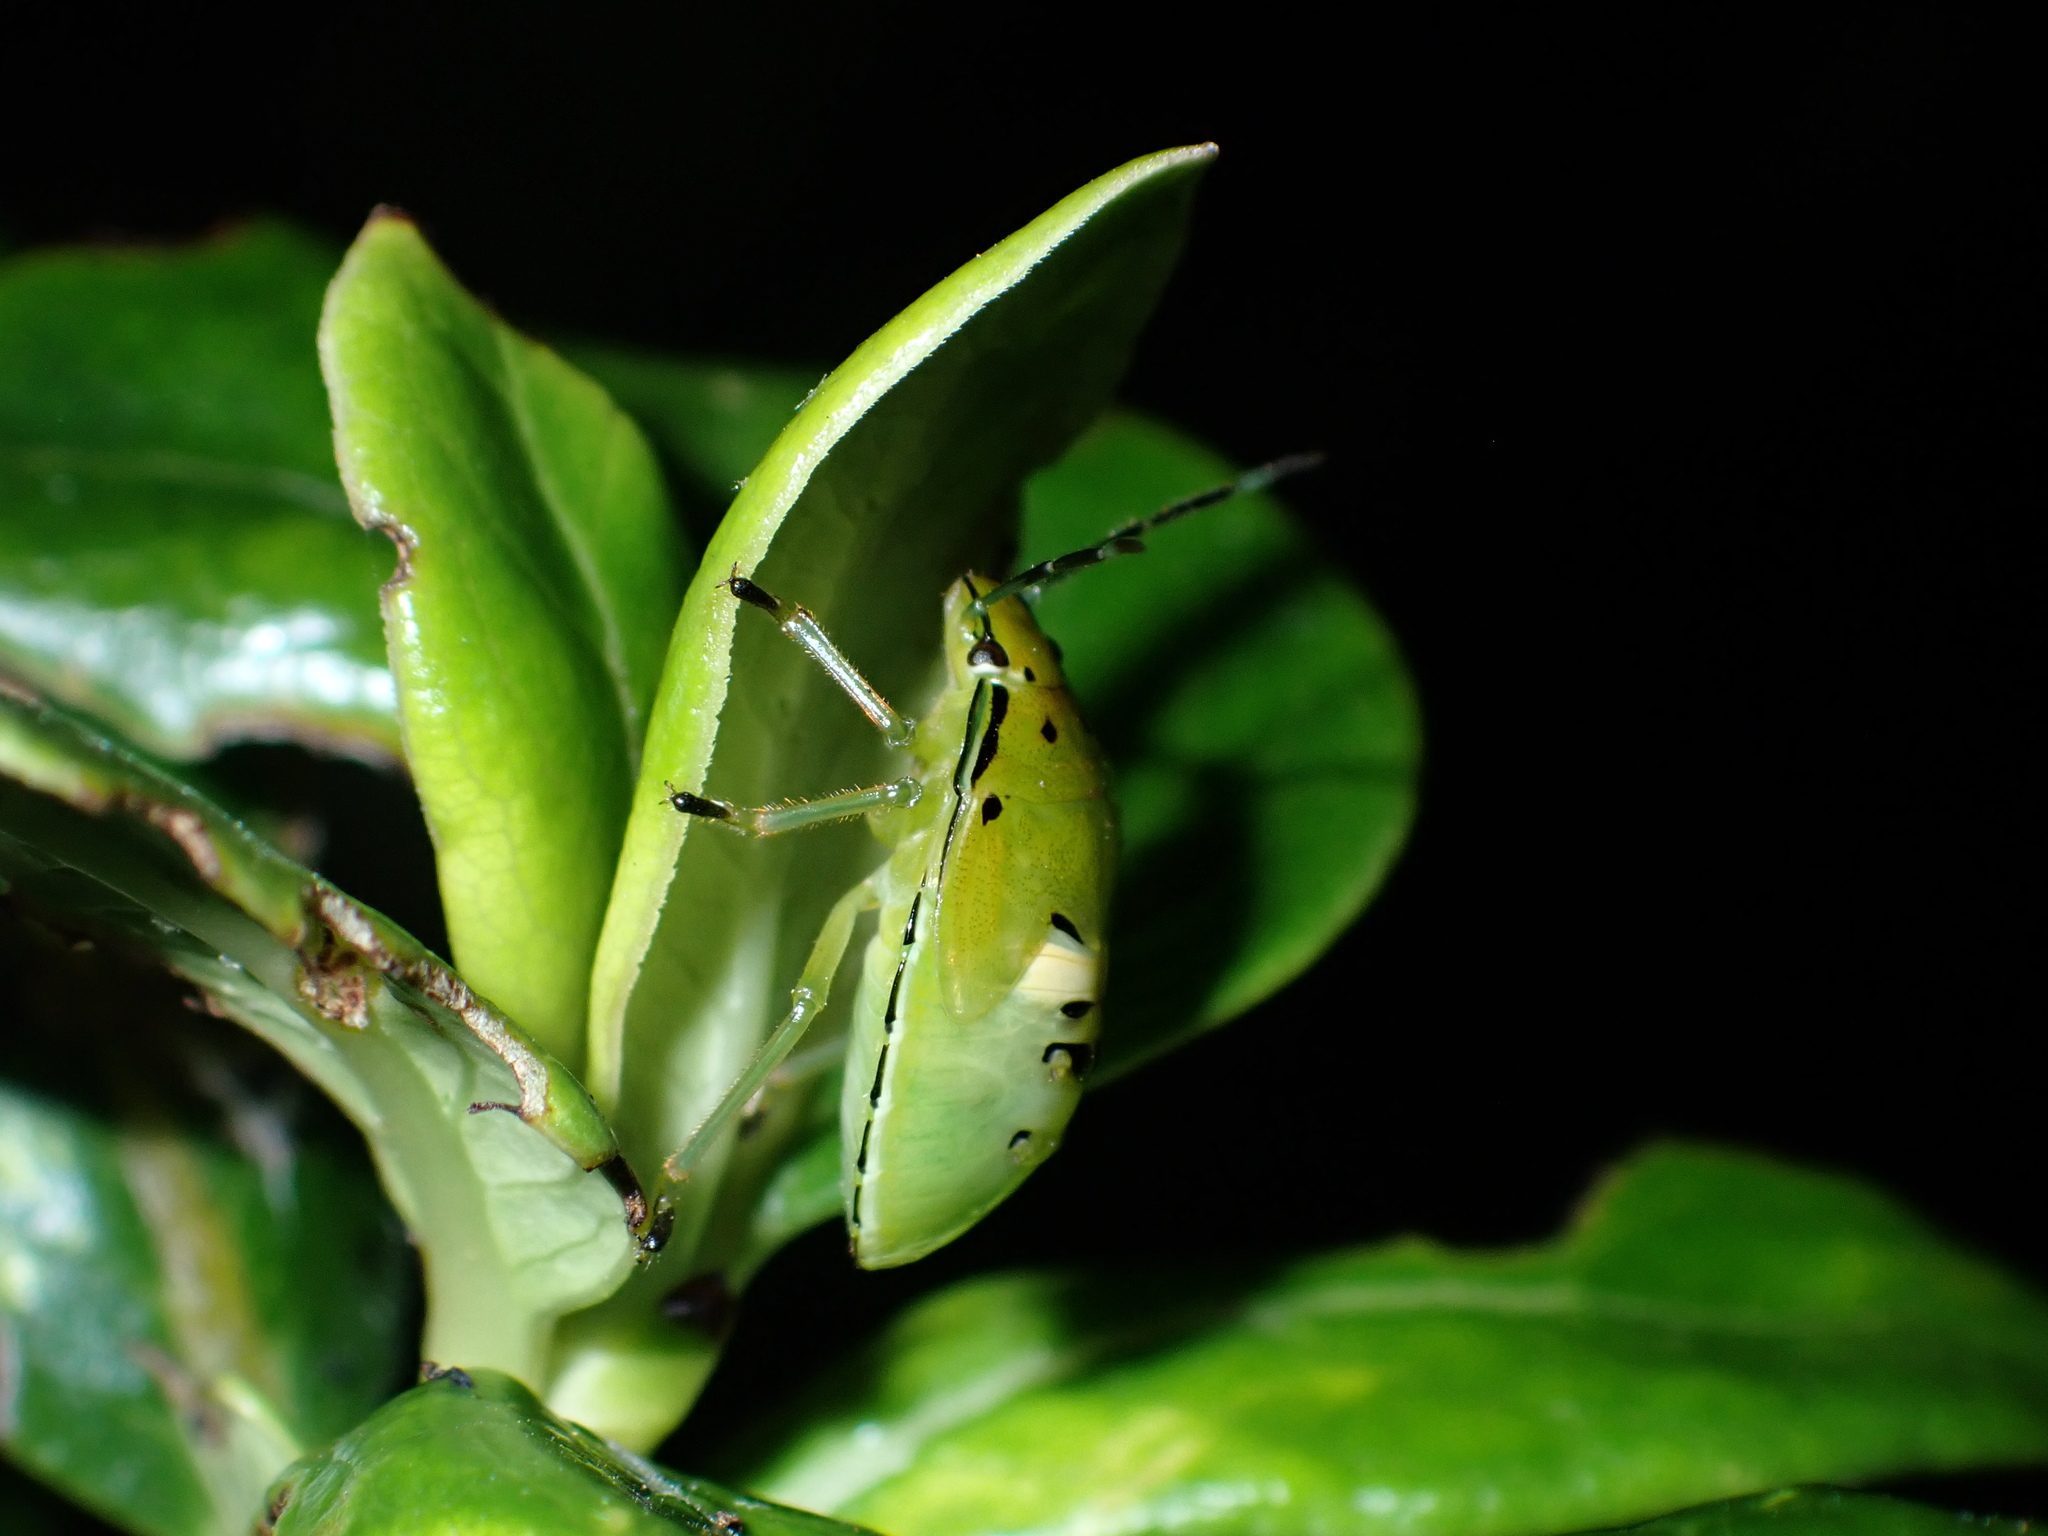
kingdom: Animalia
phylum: Arthropoda
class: Insecta
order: Hemiptera
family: Pentatomidae
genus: Glaucias
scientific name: Glaucias amyota
